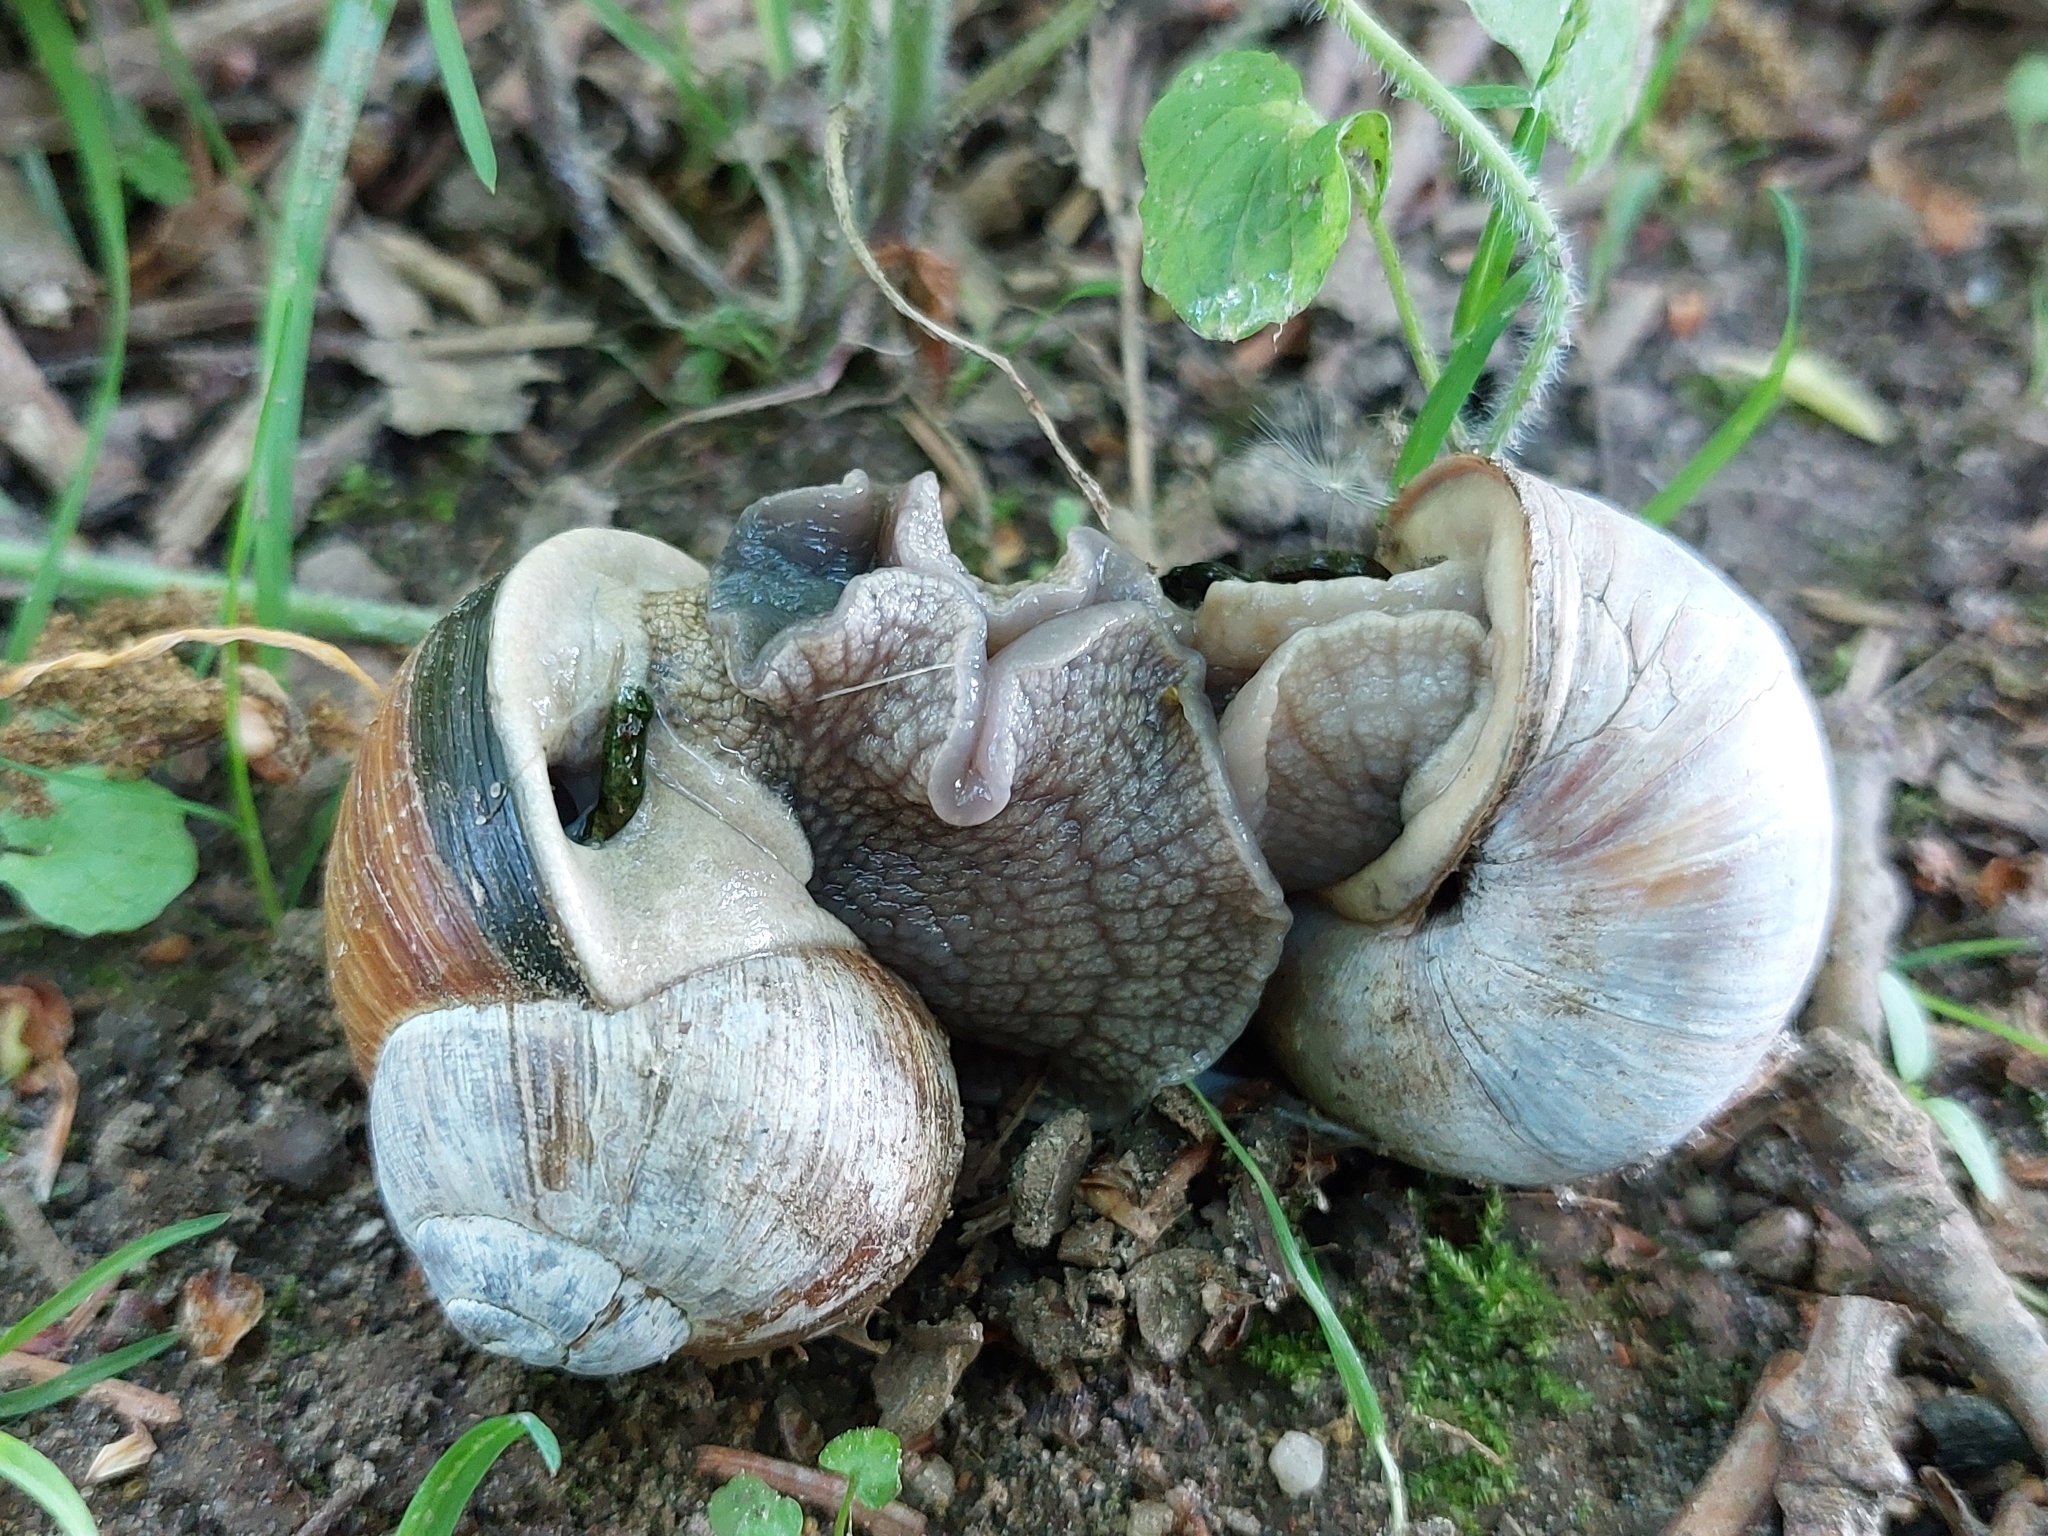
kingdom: Animalia
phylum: Mollusca
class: Gastropoda
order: Stylommatophora
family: Helicidae
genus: Helix
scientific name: Helix pomatia
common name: Roman snail
